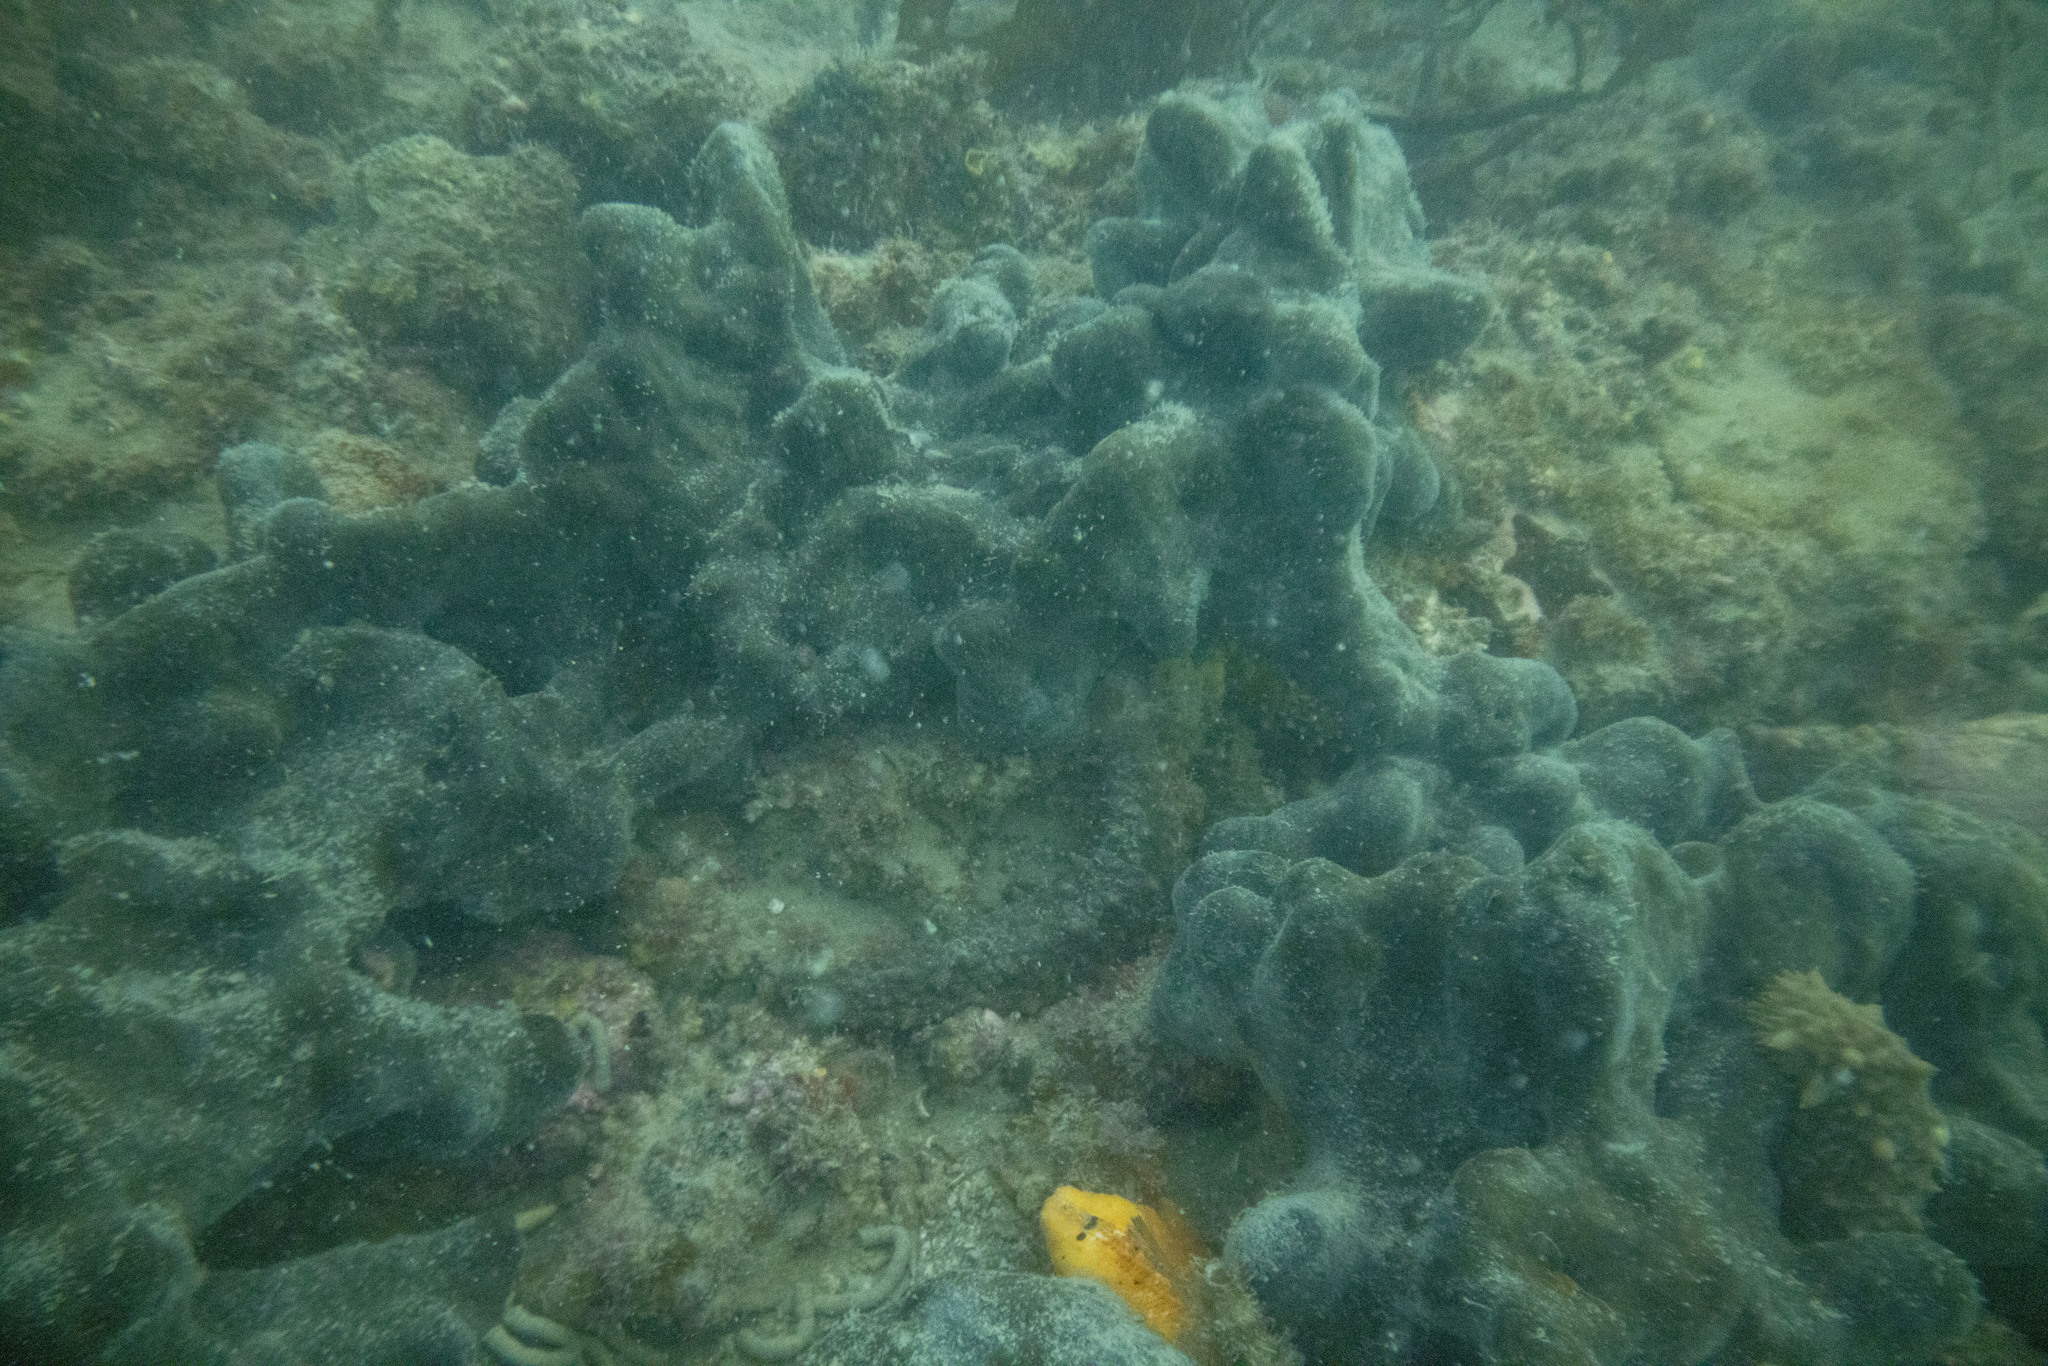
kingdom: Animalia
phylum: Porifera
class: Demospongiae
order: Tetractinellida
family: Ancorinidae
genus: Ecionemia
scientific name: Ecionemia alata
